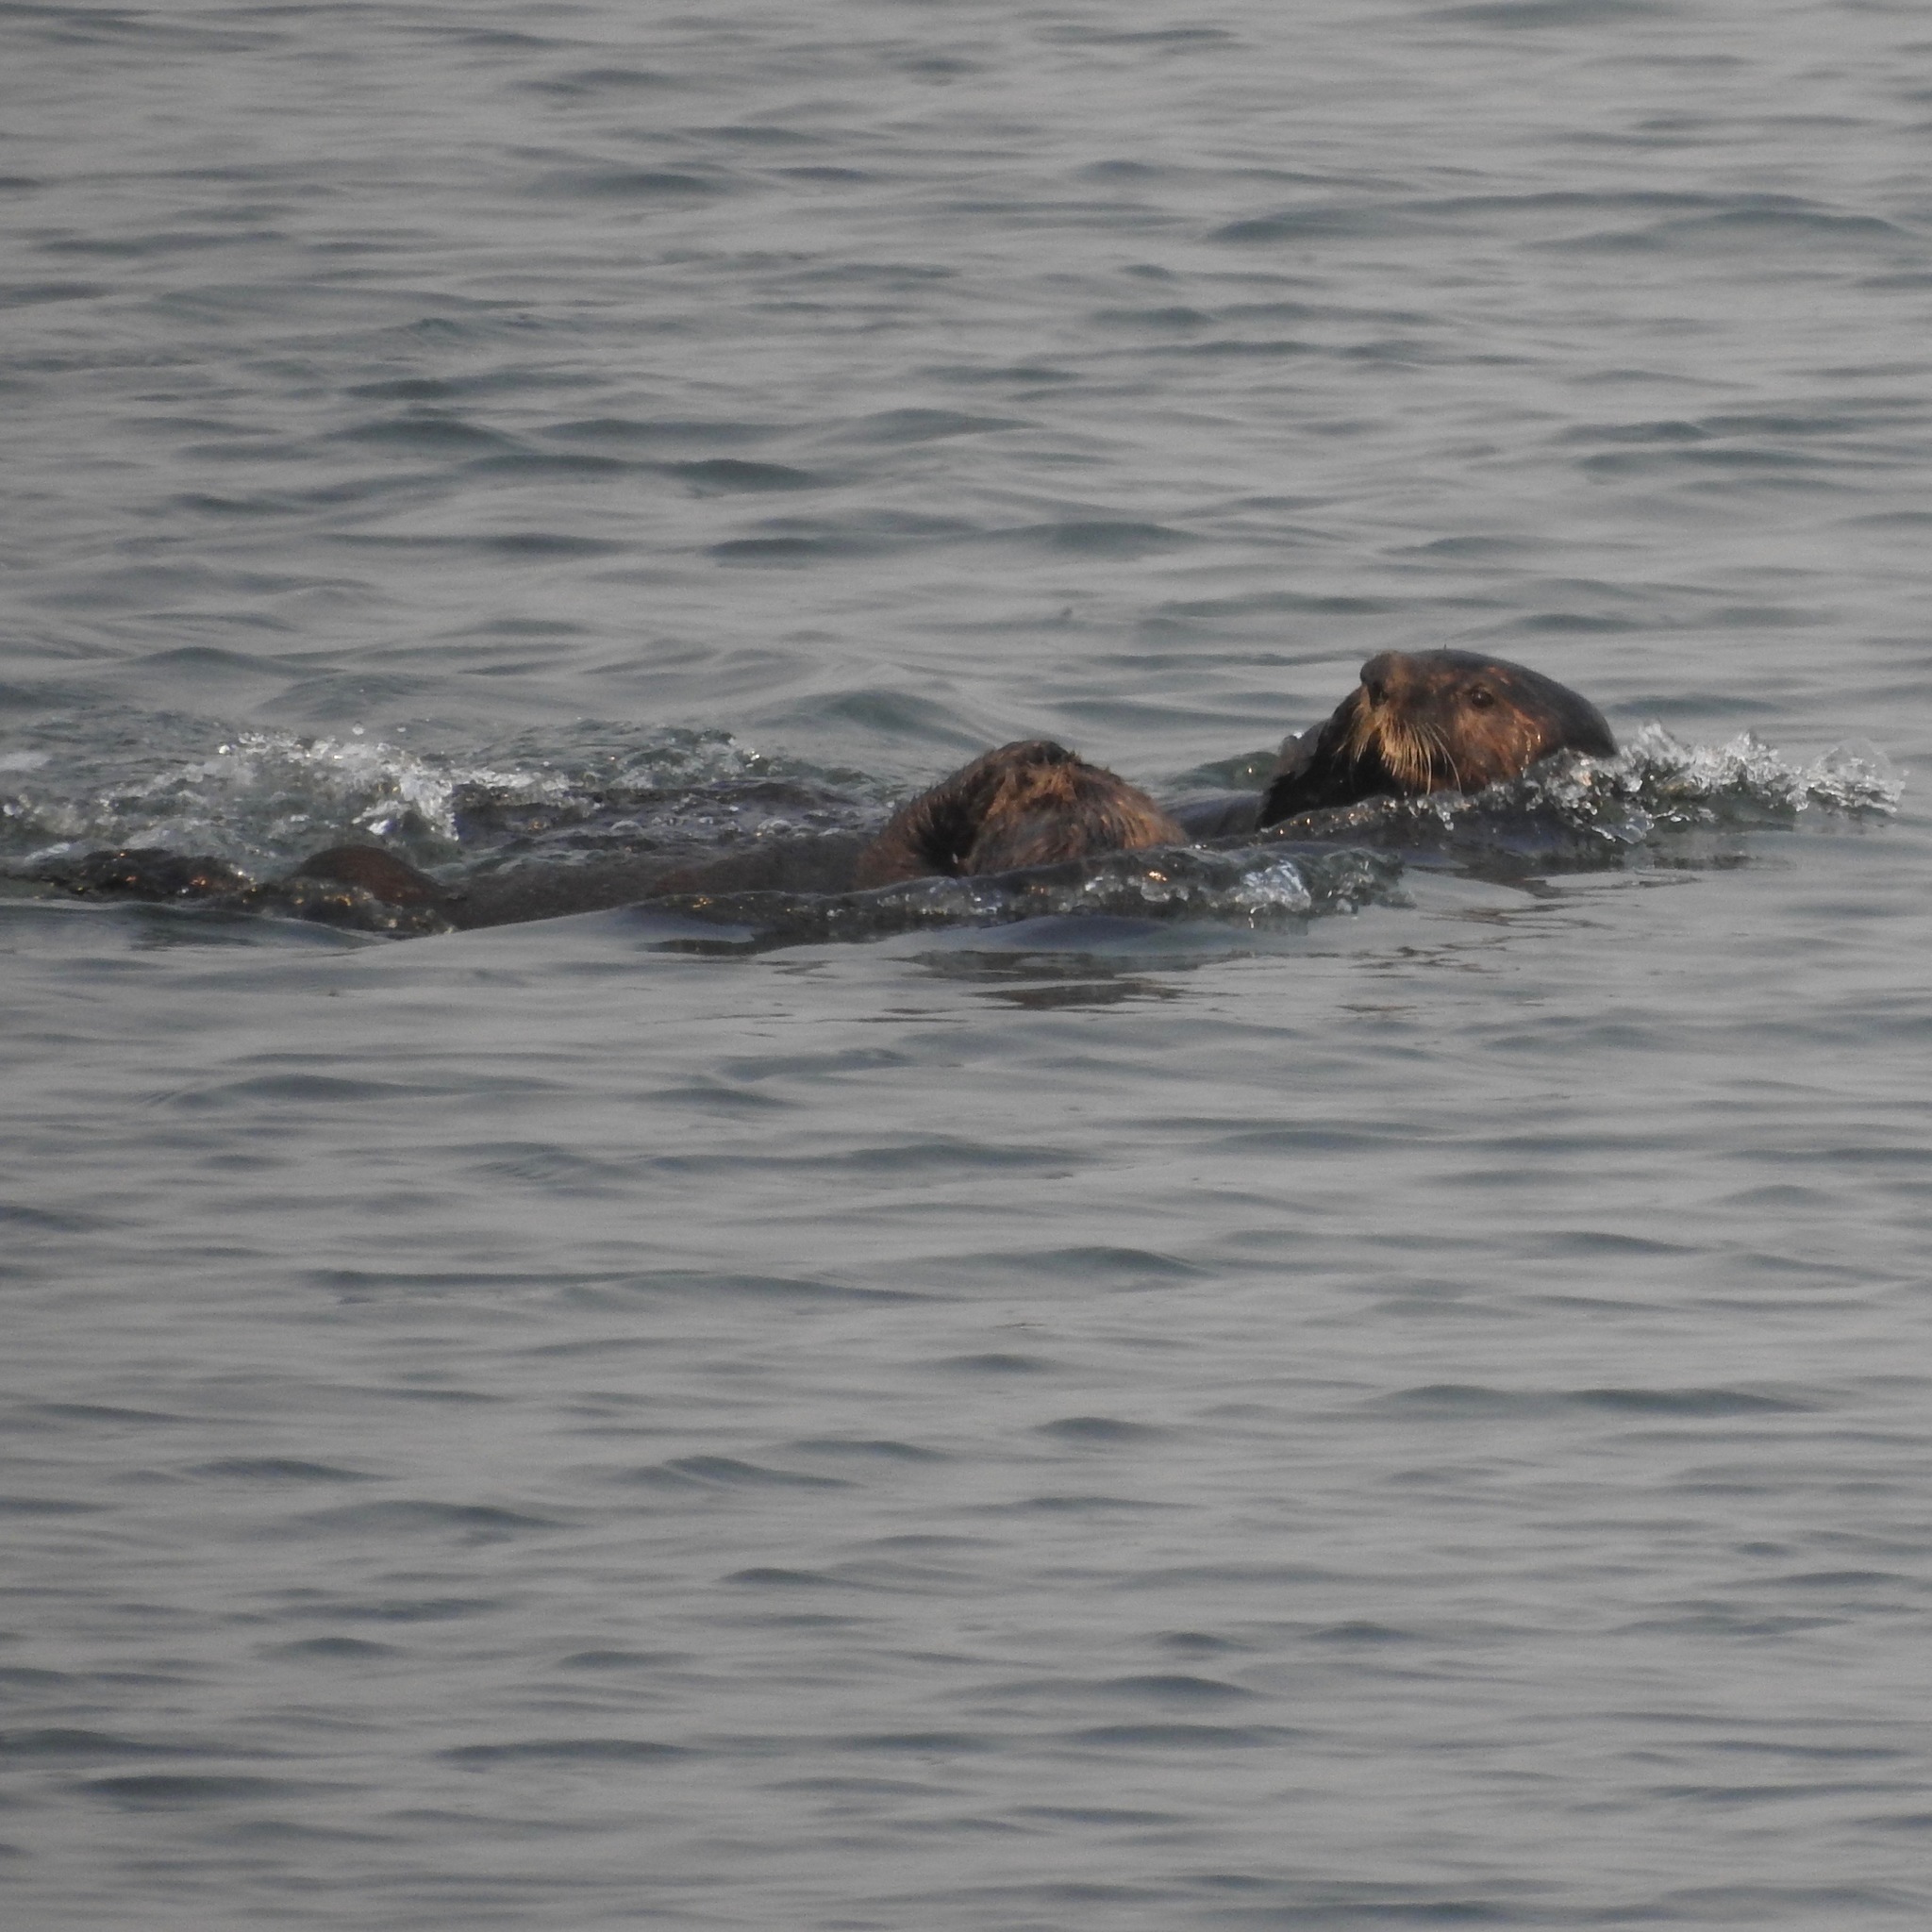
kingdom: Animalia
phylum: Chordata
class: Mammalia
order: Carnivora
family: Mustelidae
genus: Enhydra
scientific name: Enhydra lutris
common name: Sea otter
